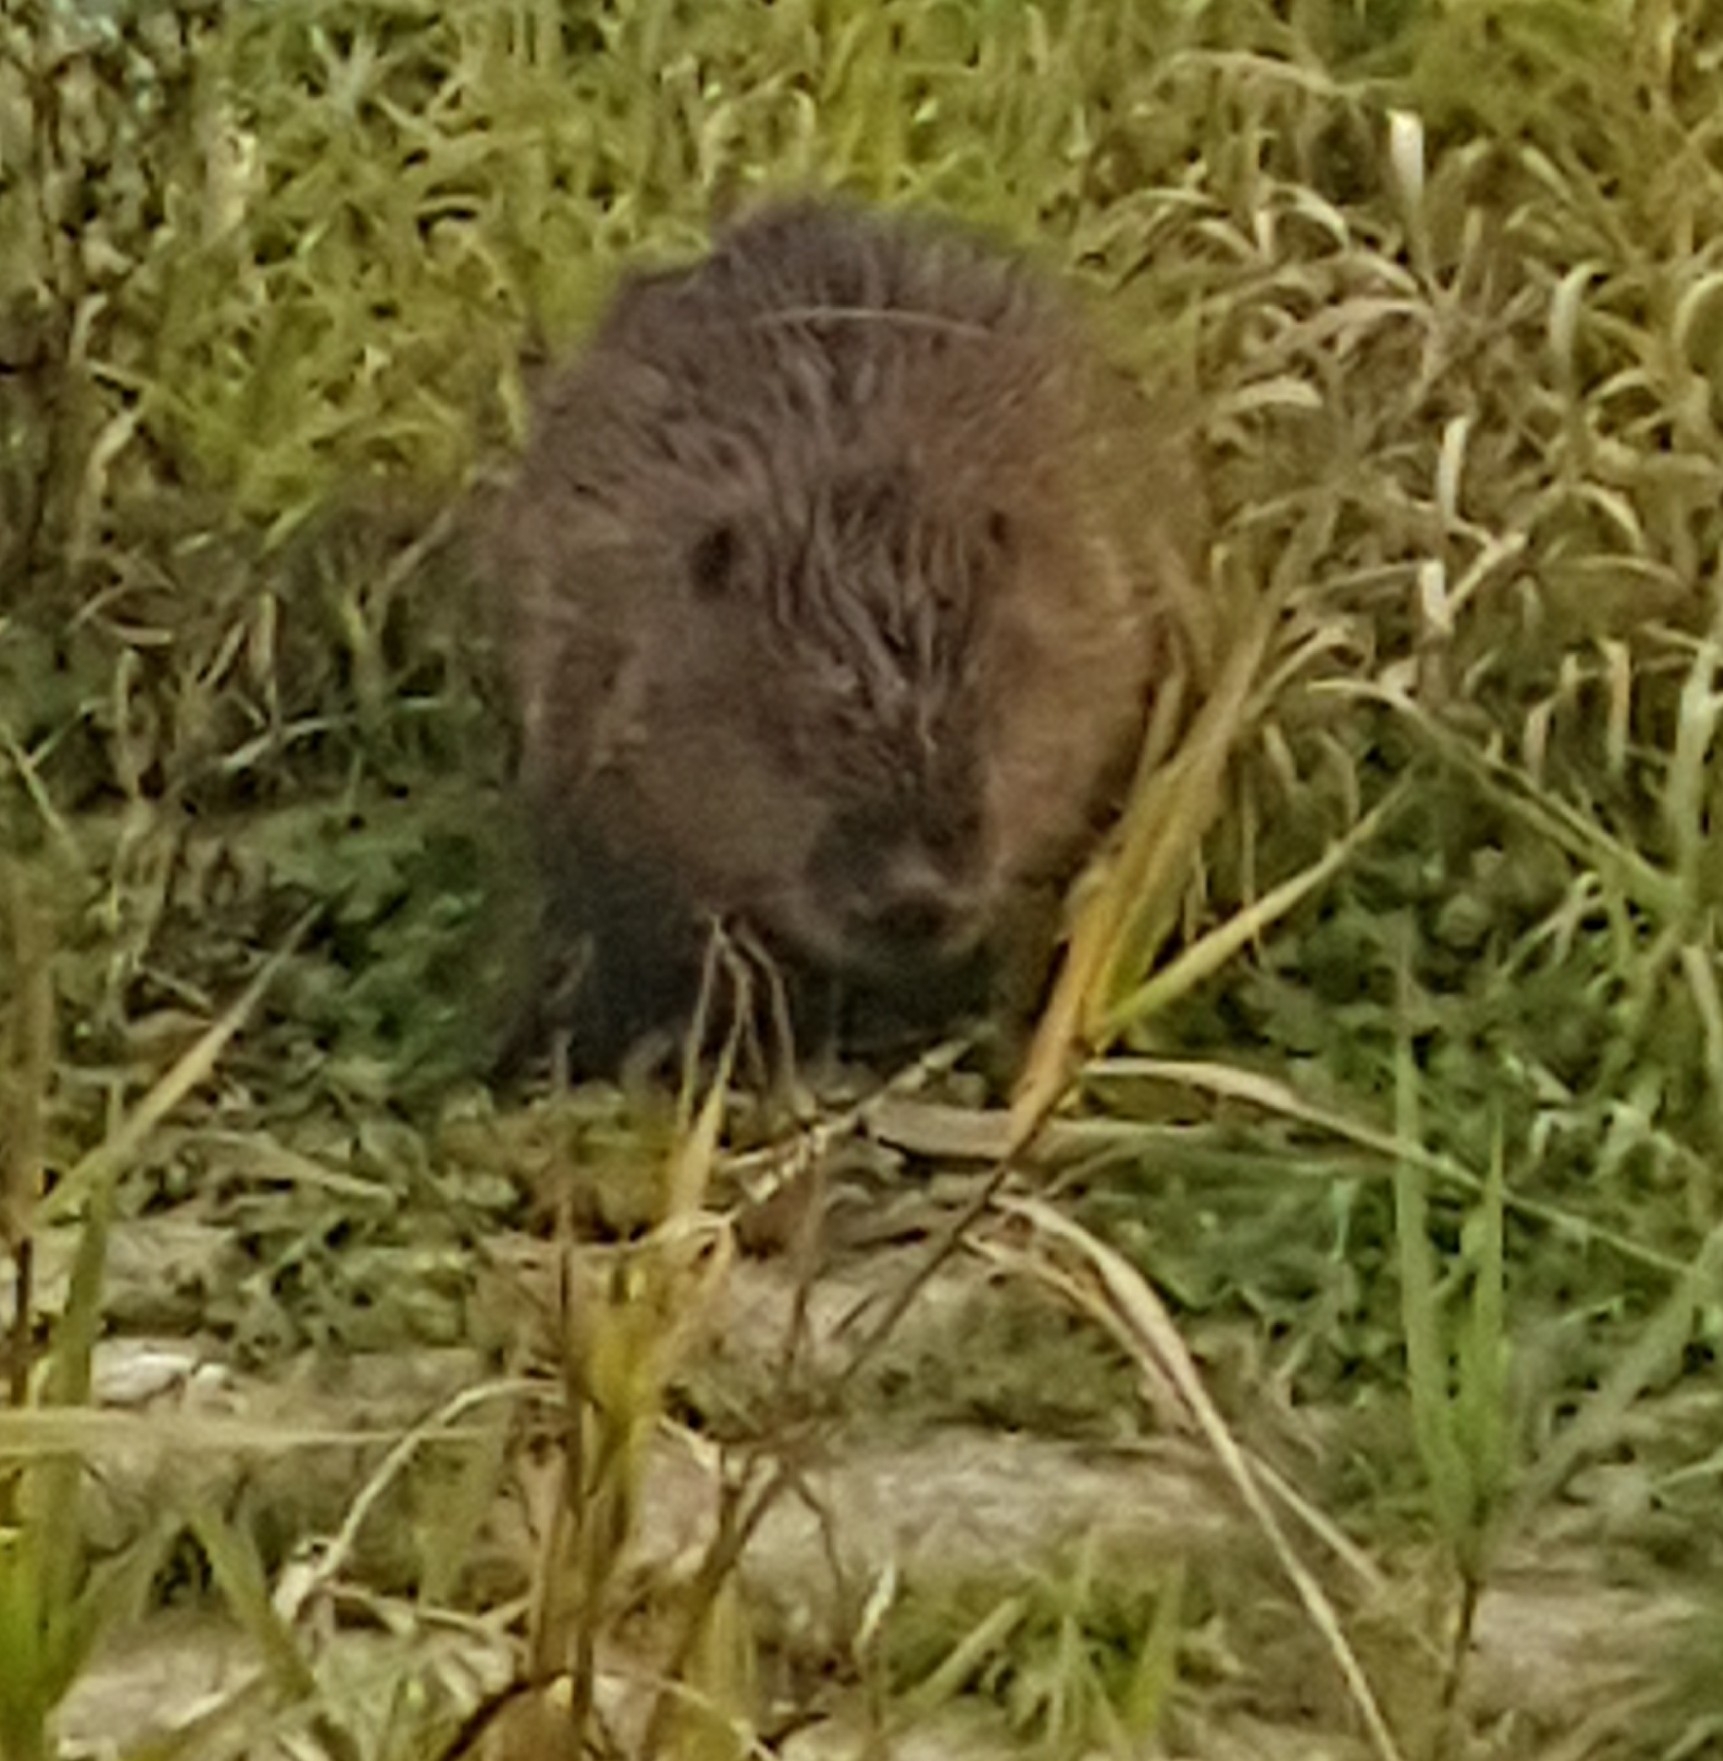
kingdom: Animalia
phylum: Chordata
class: Mammalia
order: Rodentia
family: Castoridae
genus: Castor
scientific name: Castor fiber
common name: Eurasian beaver
